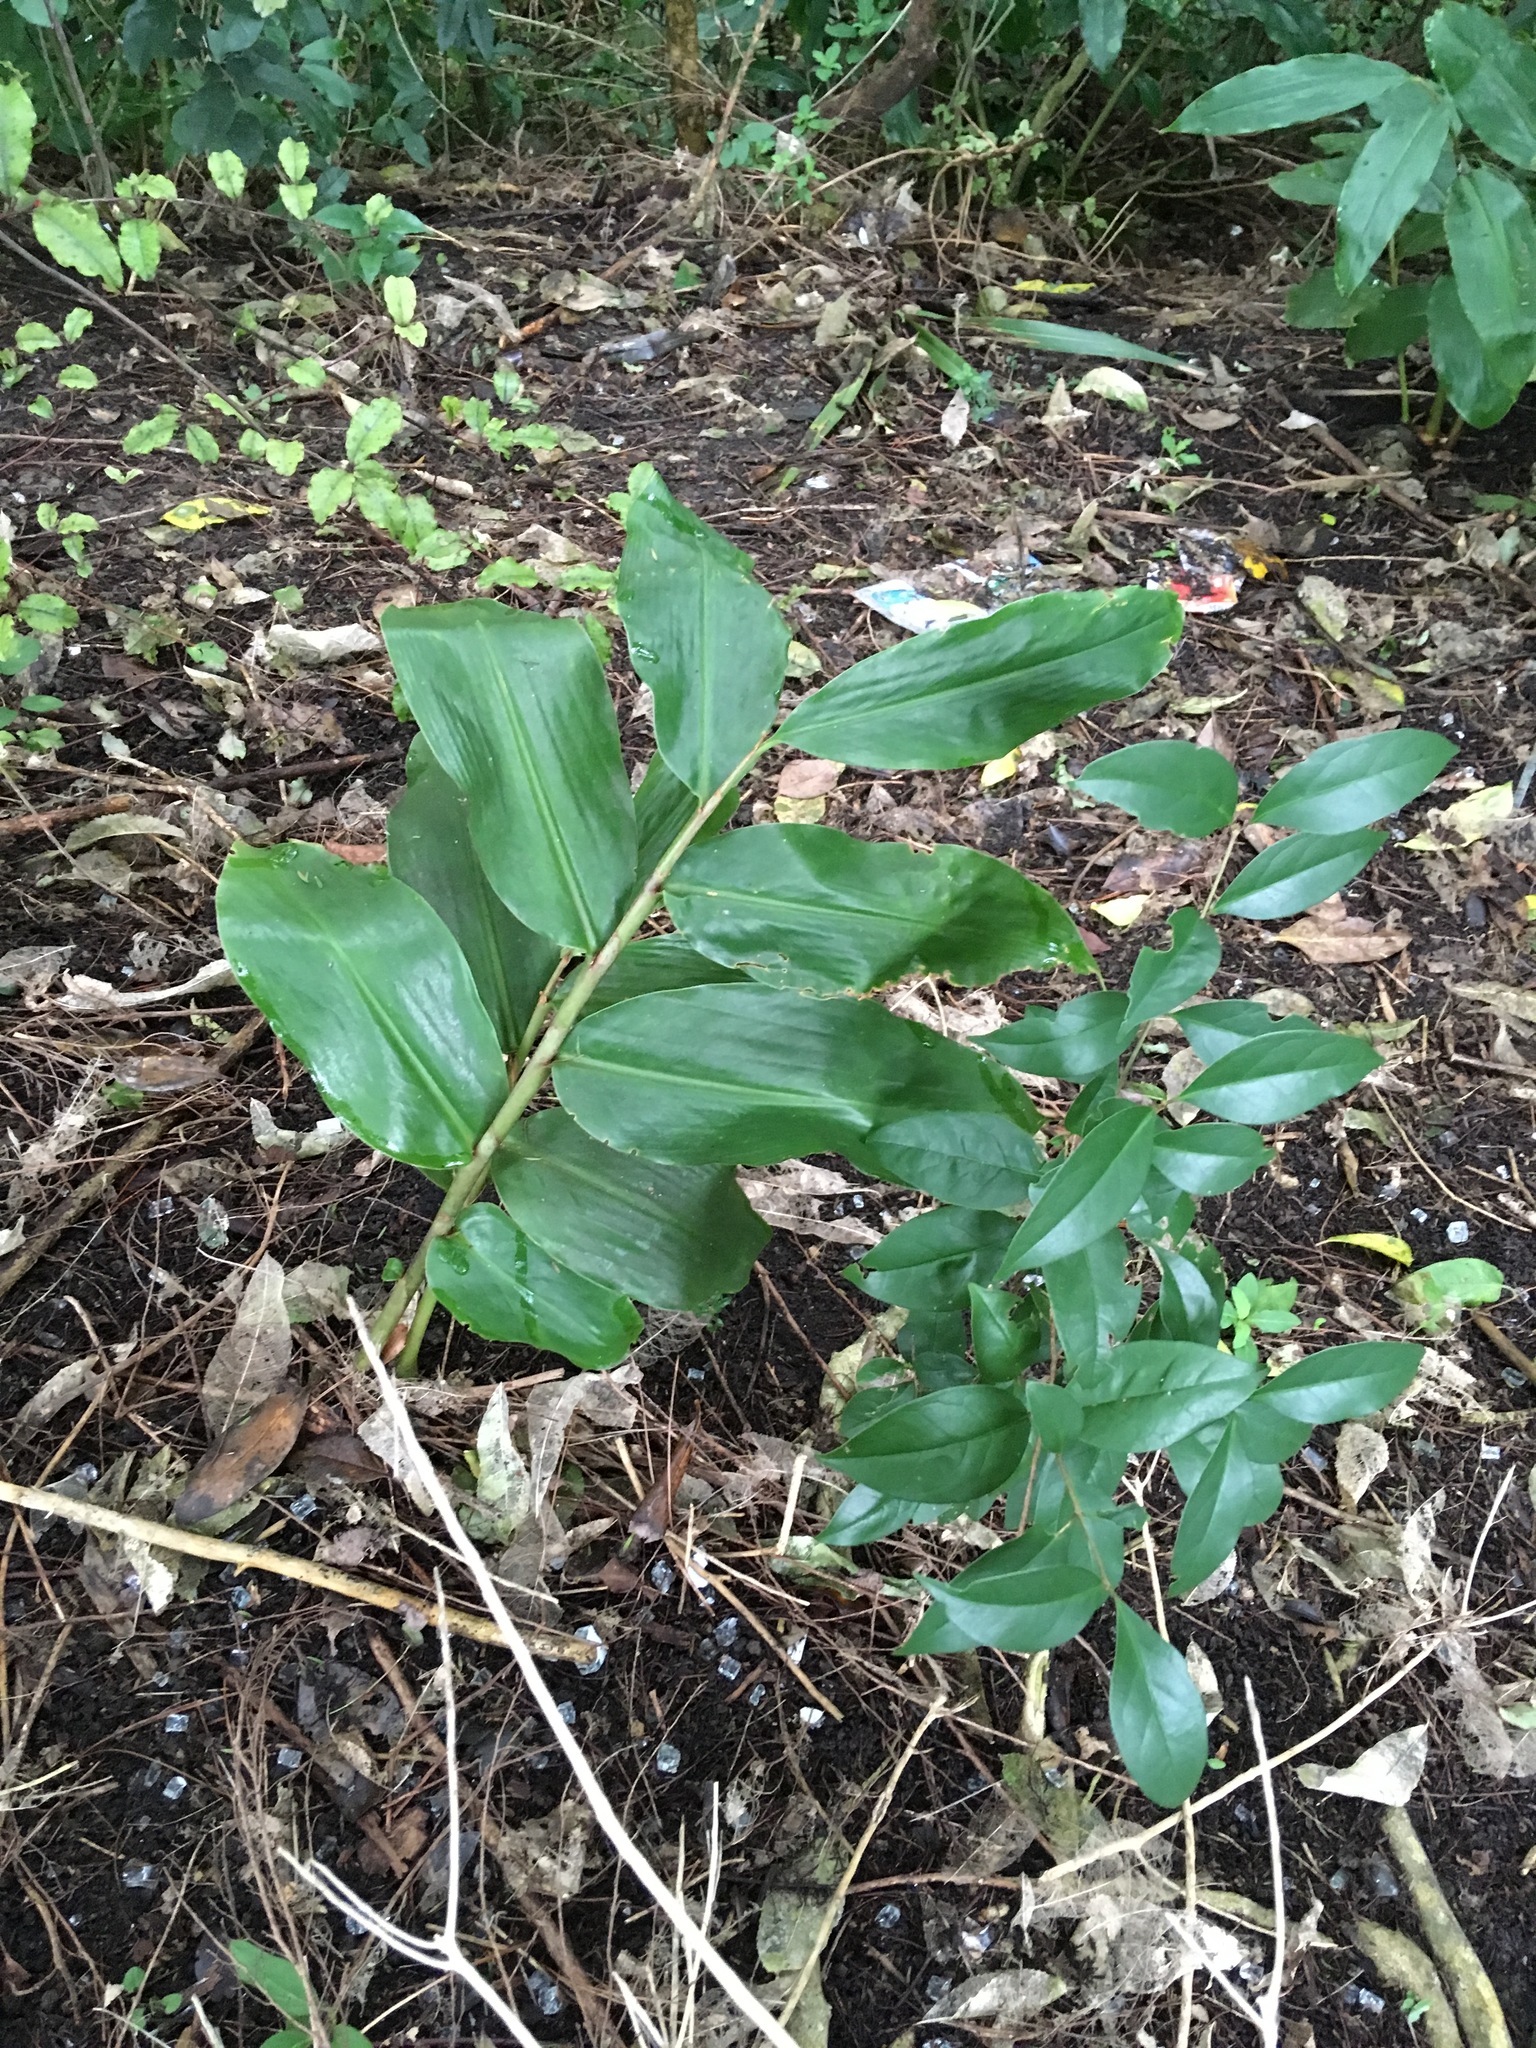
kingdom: Plantae
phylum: Tracheophyta
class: Liliopsida
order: Zingiberales
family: Zingiberaceae
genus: Hedychium
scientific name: Hedychium gardnerianum
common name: Himalayan ginger
